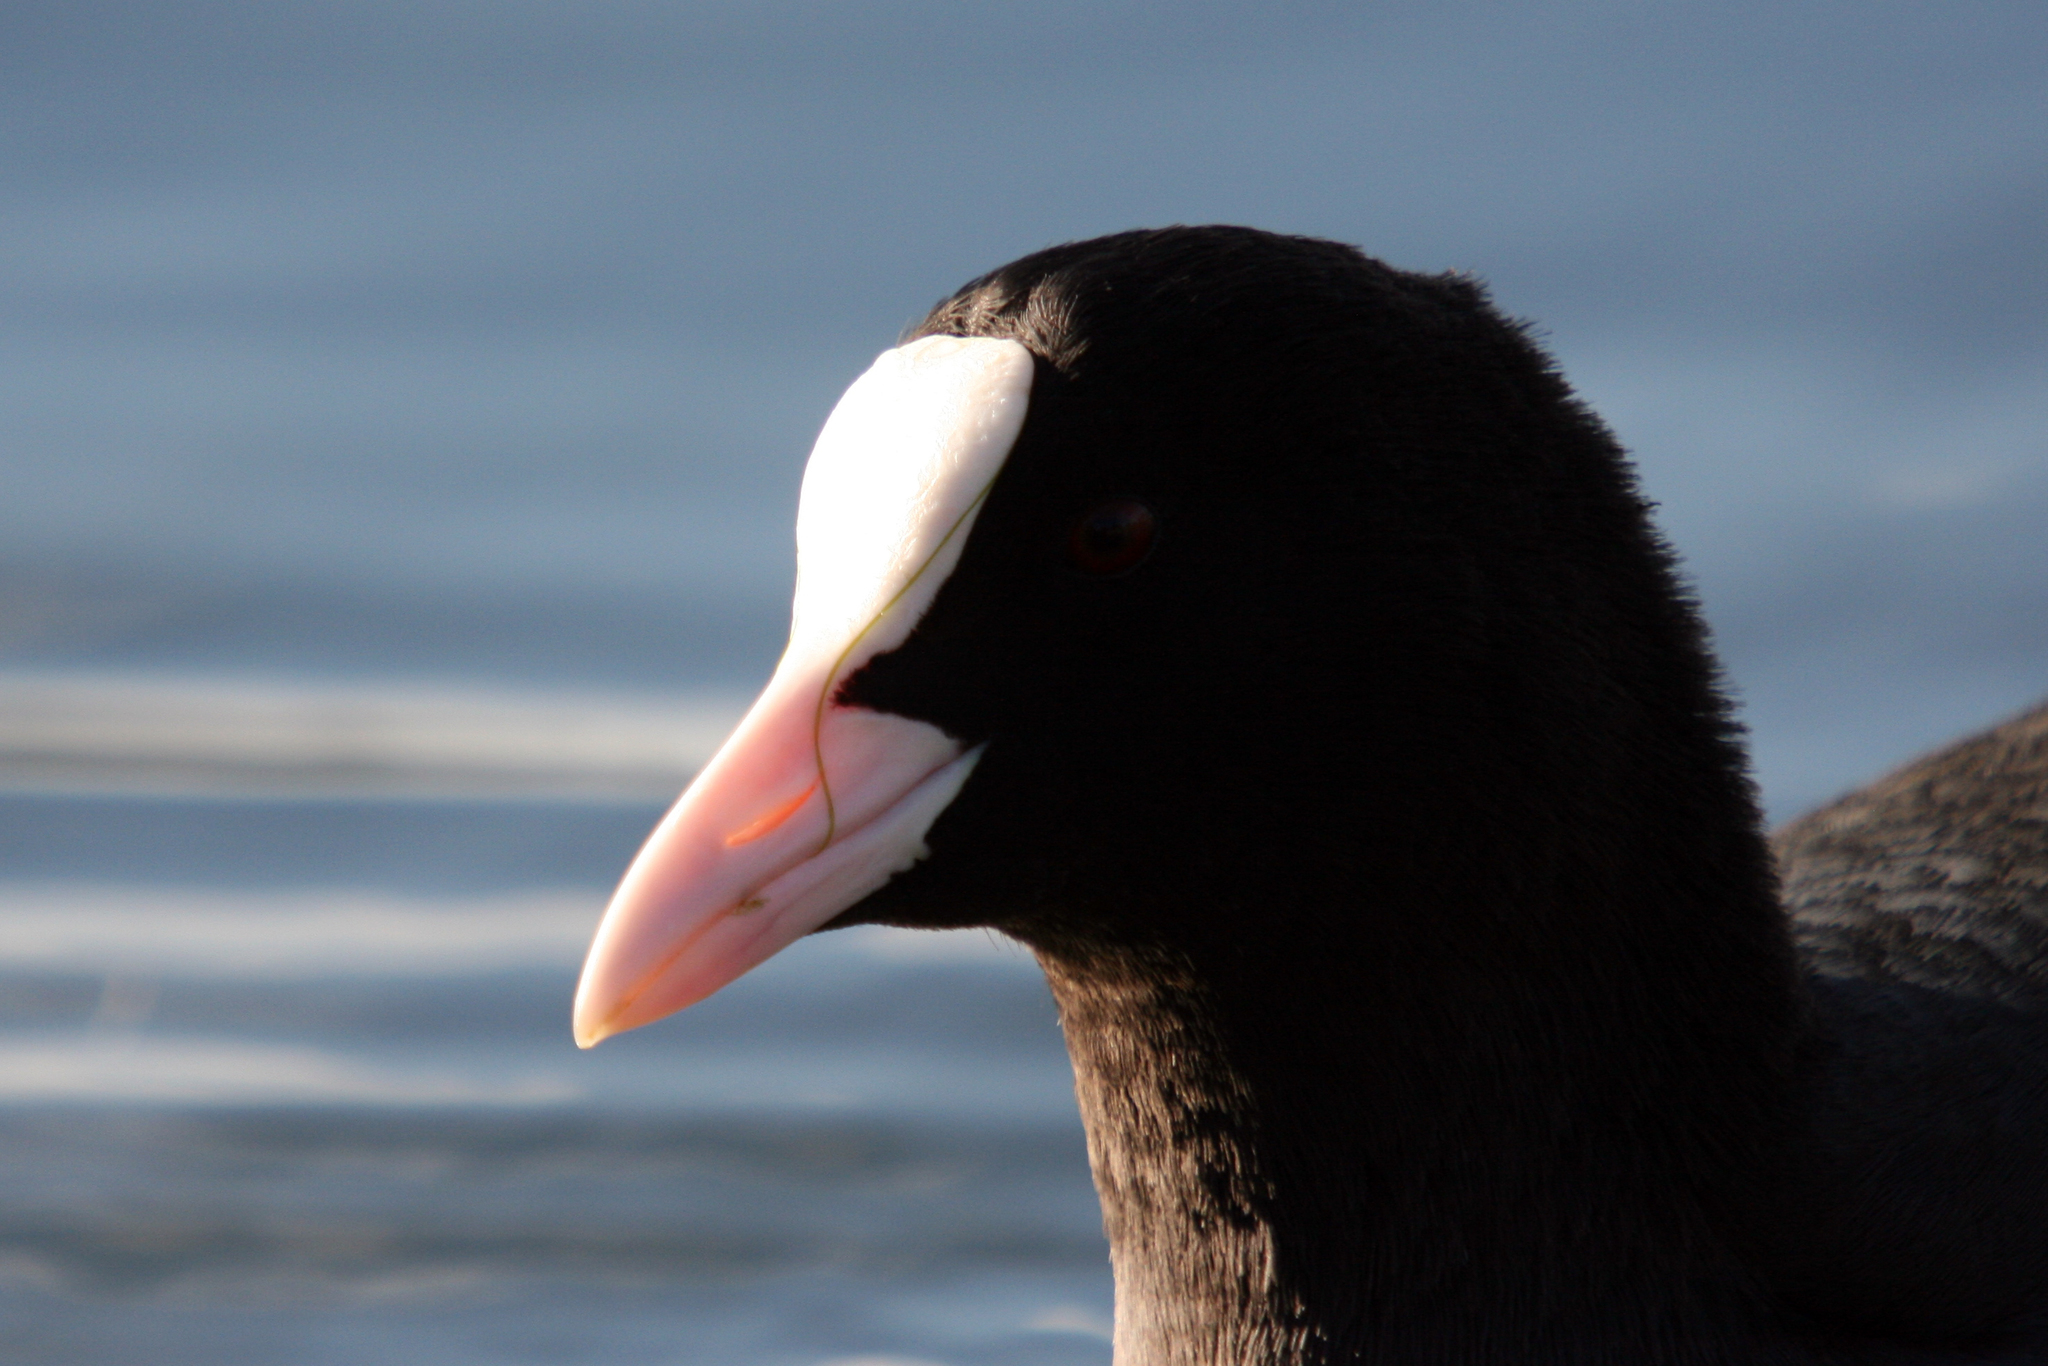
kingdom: Animalia
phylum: Chordata
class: Aves
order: Gruiformes
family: Rallidae
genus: Fulica
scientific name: Fulica atra
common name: Eurasian coot
